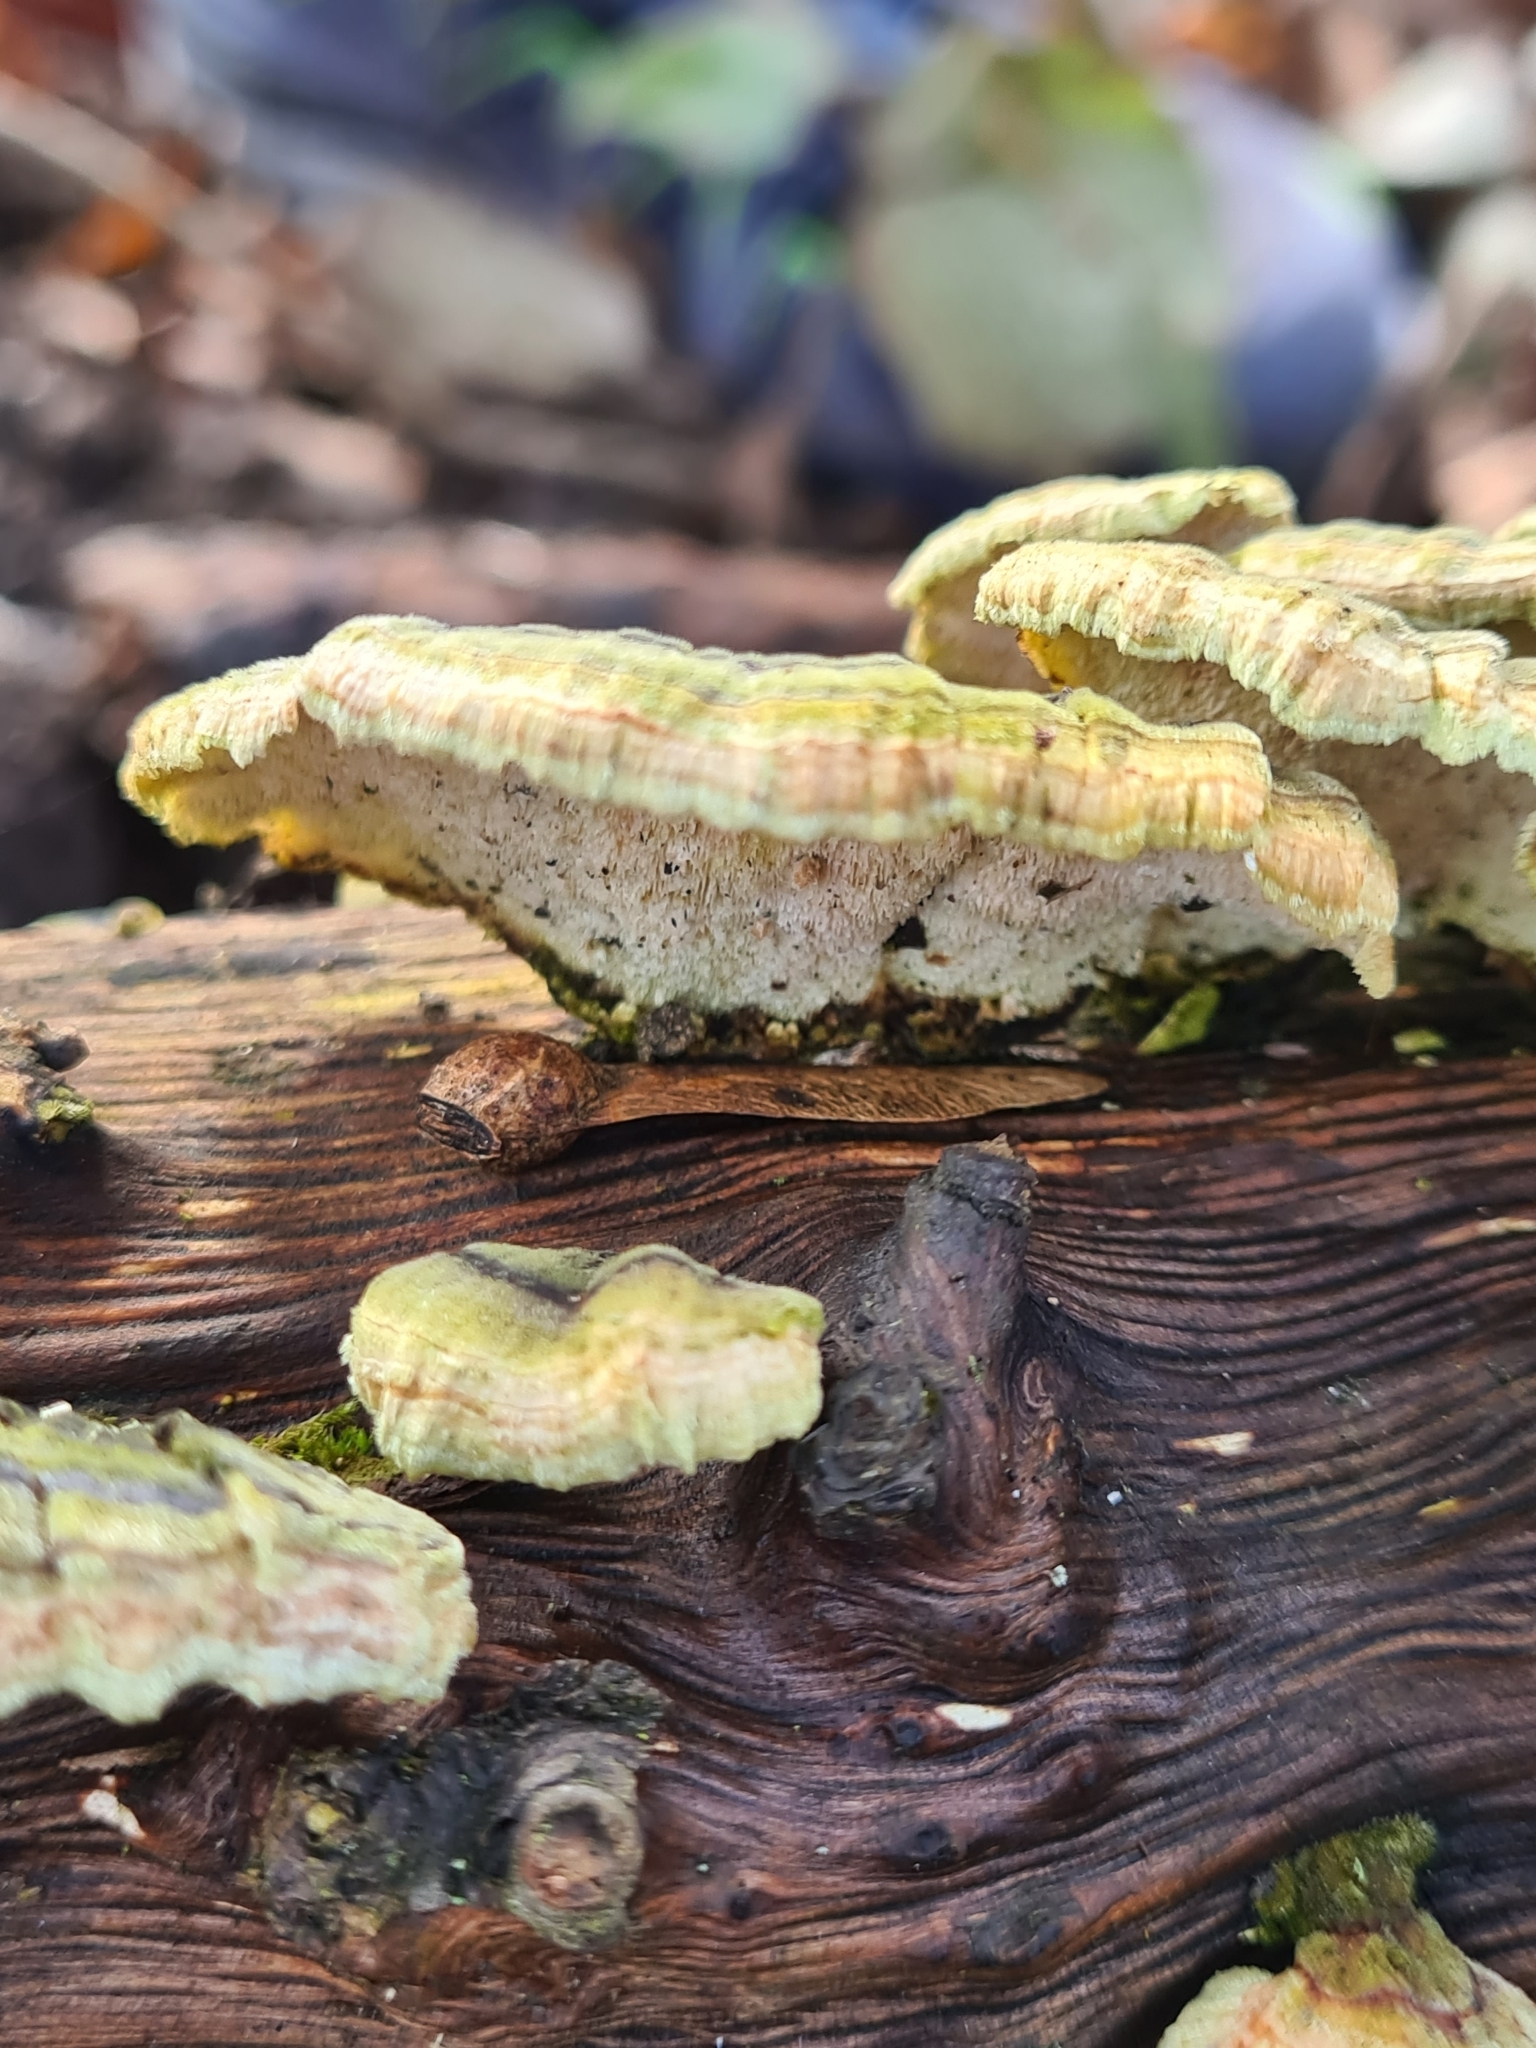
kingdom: Fungi
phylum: Basidiomycota
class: Agaricomycetes
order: Polyporales
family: Polyporaceae
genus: Trametes
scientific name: Trametes versicolor
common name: Turkeytail
